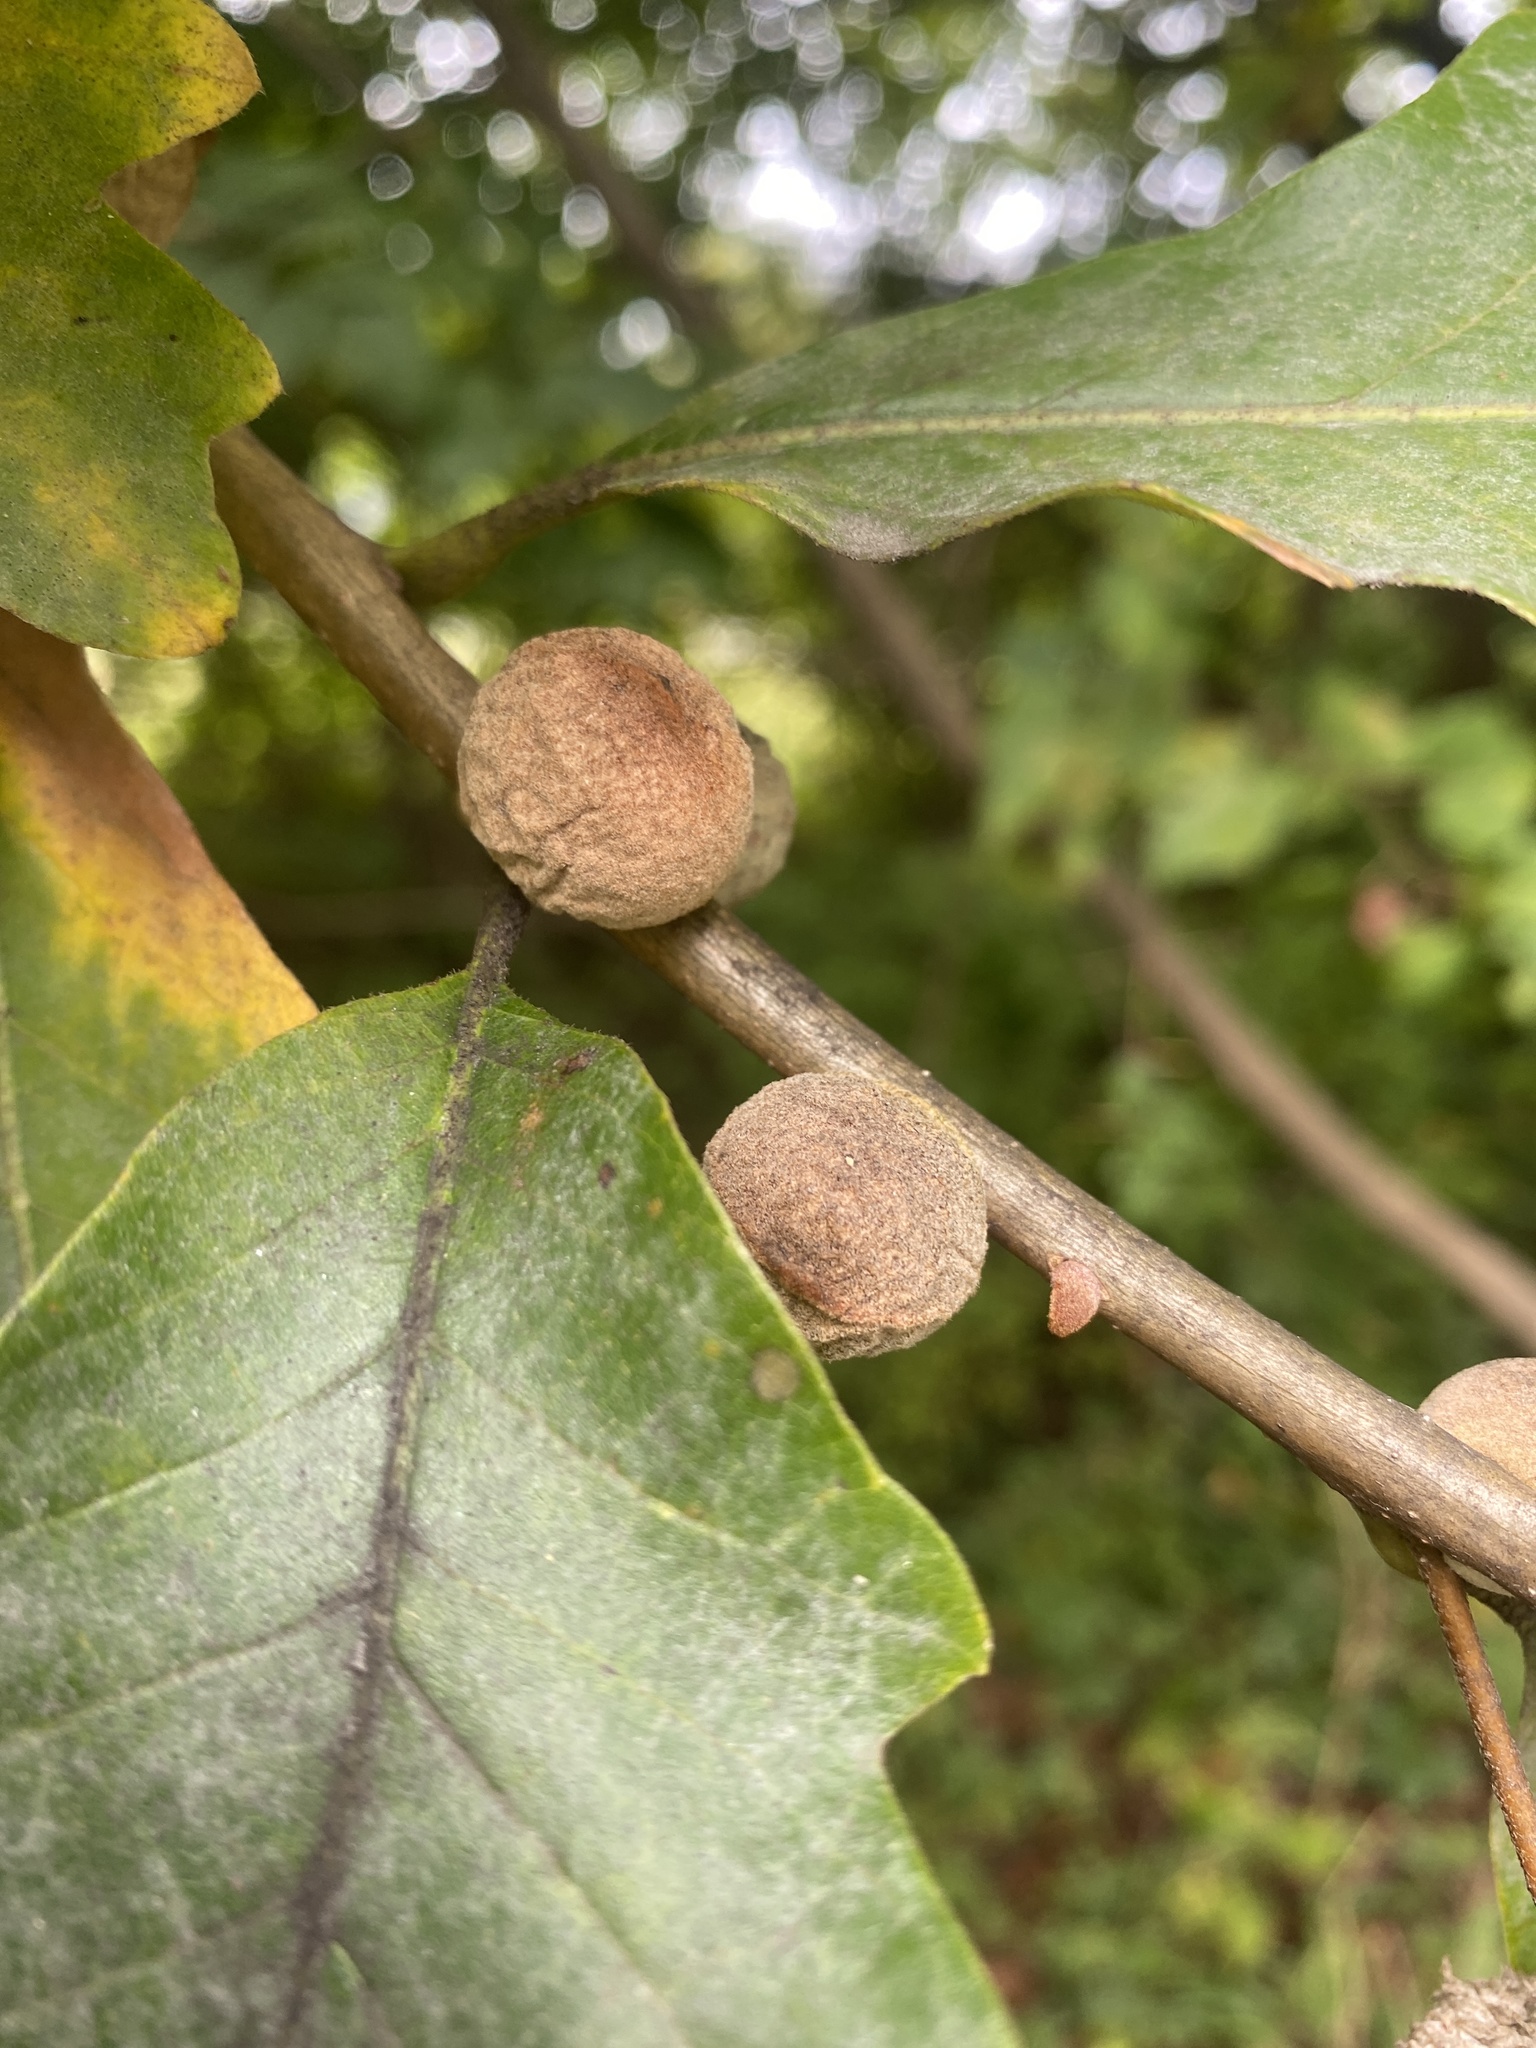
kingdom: Animalia
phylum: Arthropoda
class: Insecta
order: Hymenoptera
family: Cynipidae
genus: Disholcaspis
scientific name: Disholcaspis
